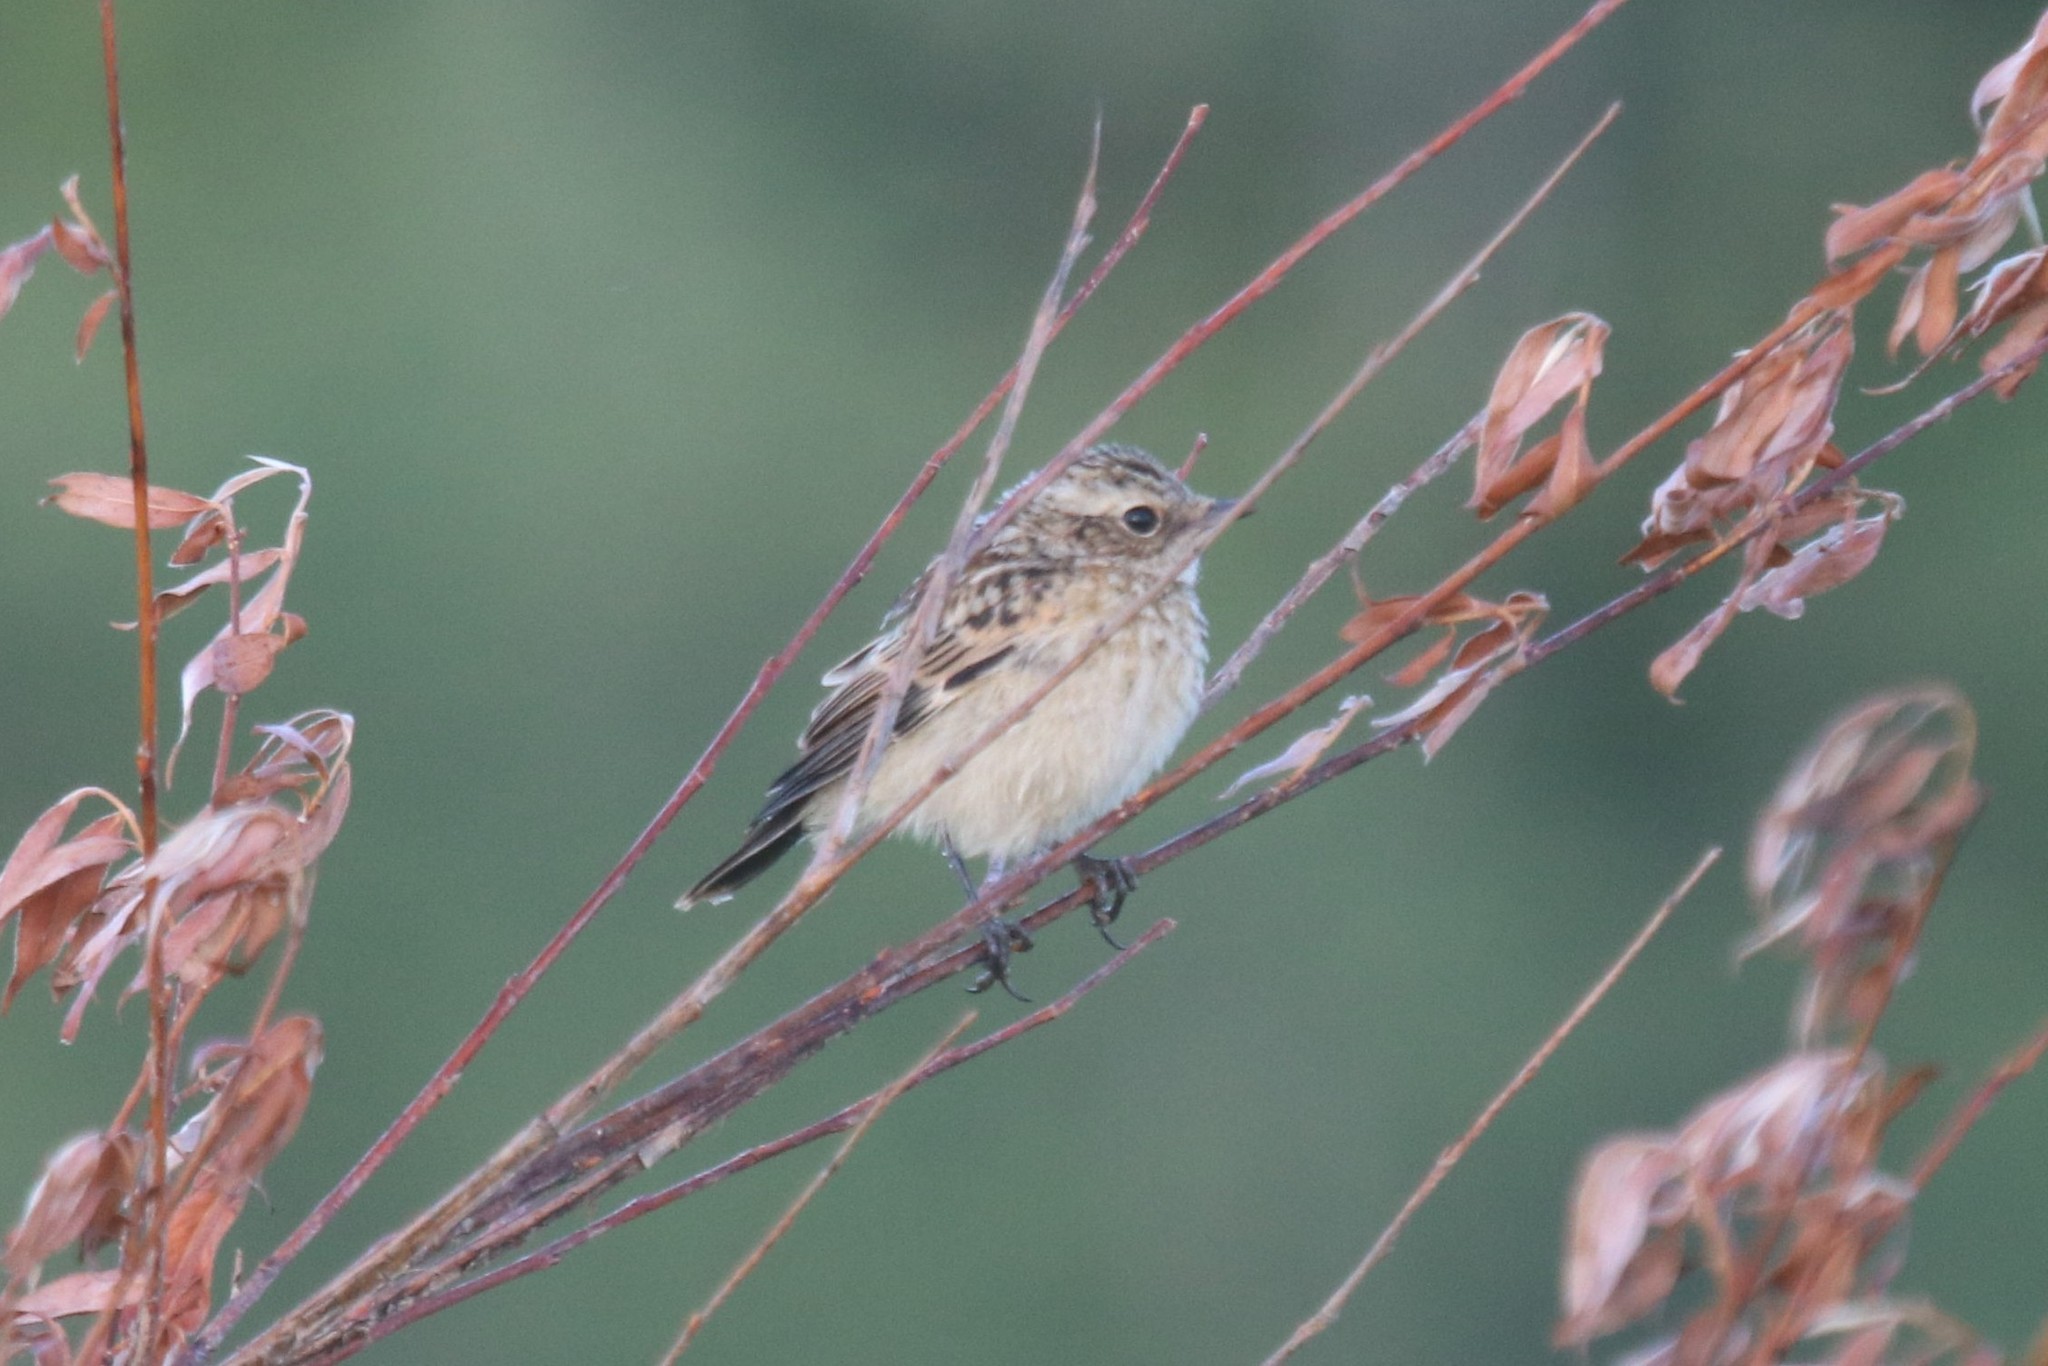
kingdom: Animalia
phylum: Chordata
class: Aves
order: Passeriformes
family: Muscicapidae
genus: Saxicola
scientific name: Saxicola rubetra
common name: Whinchat
